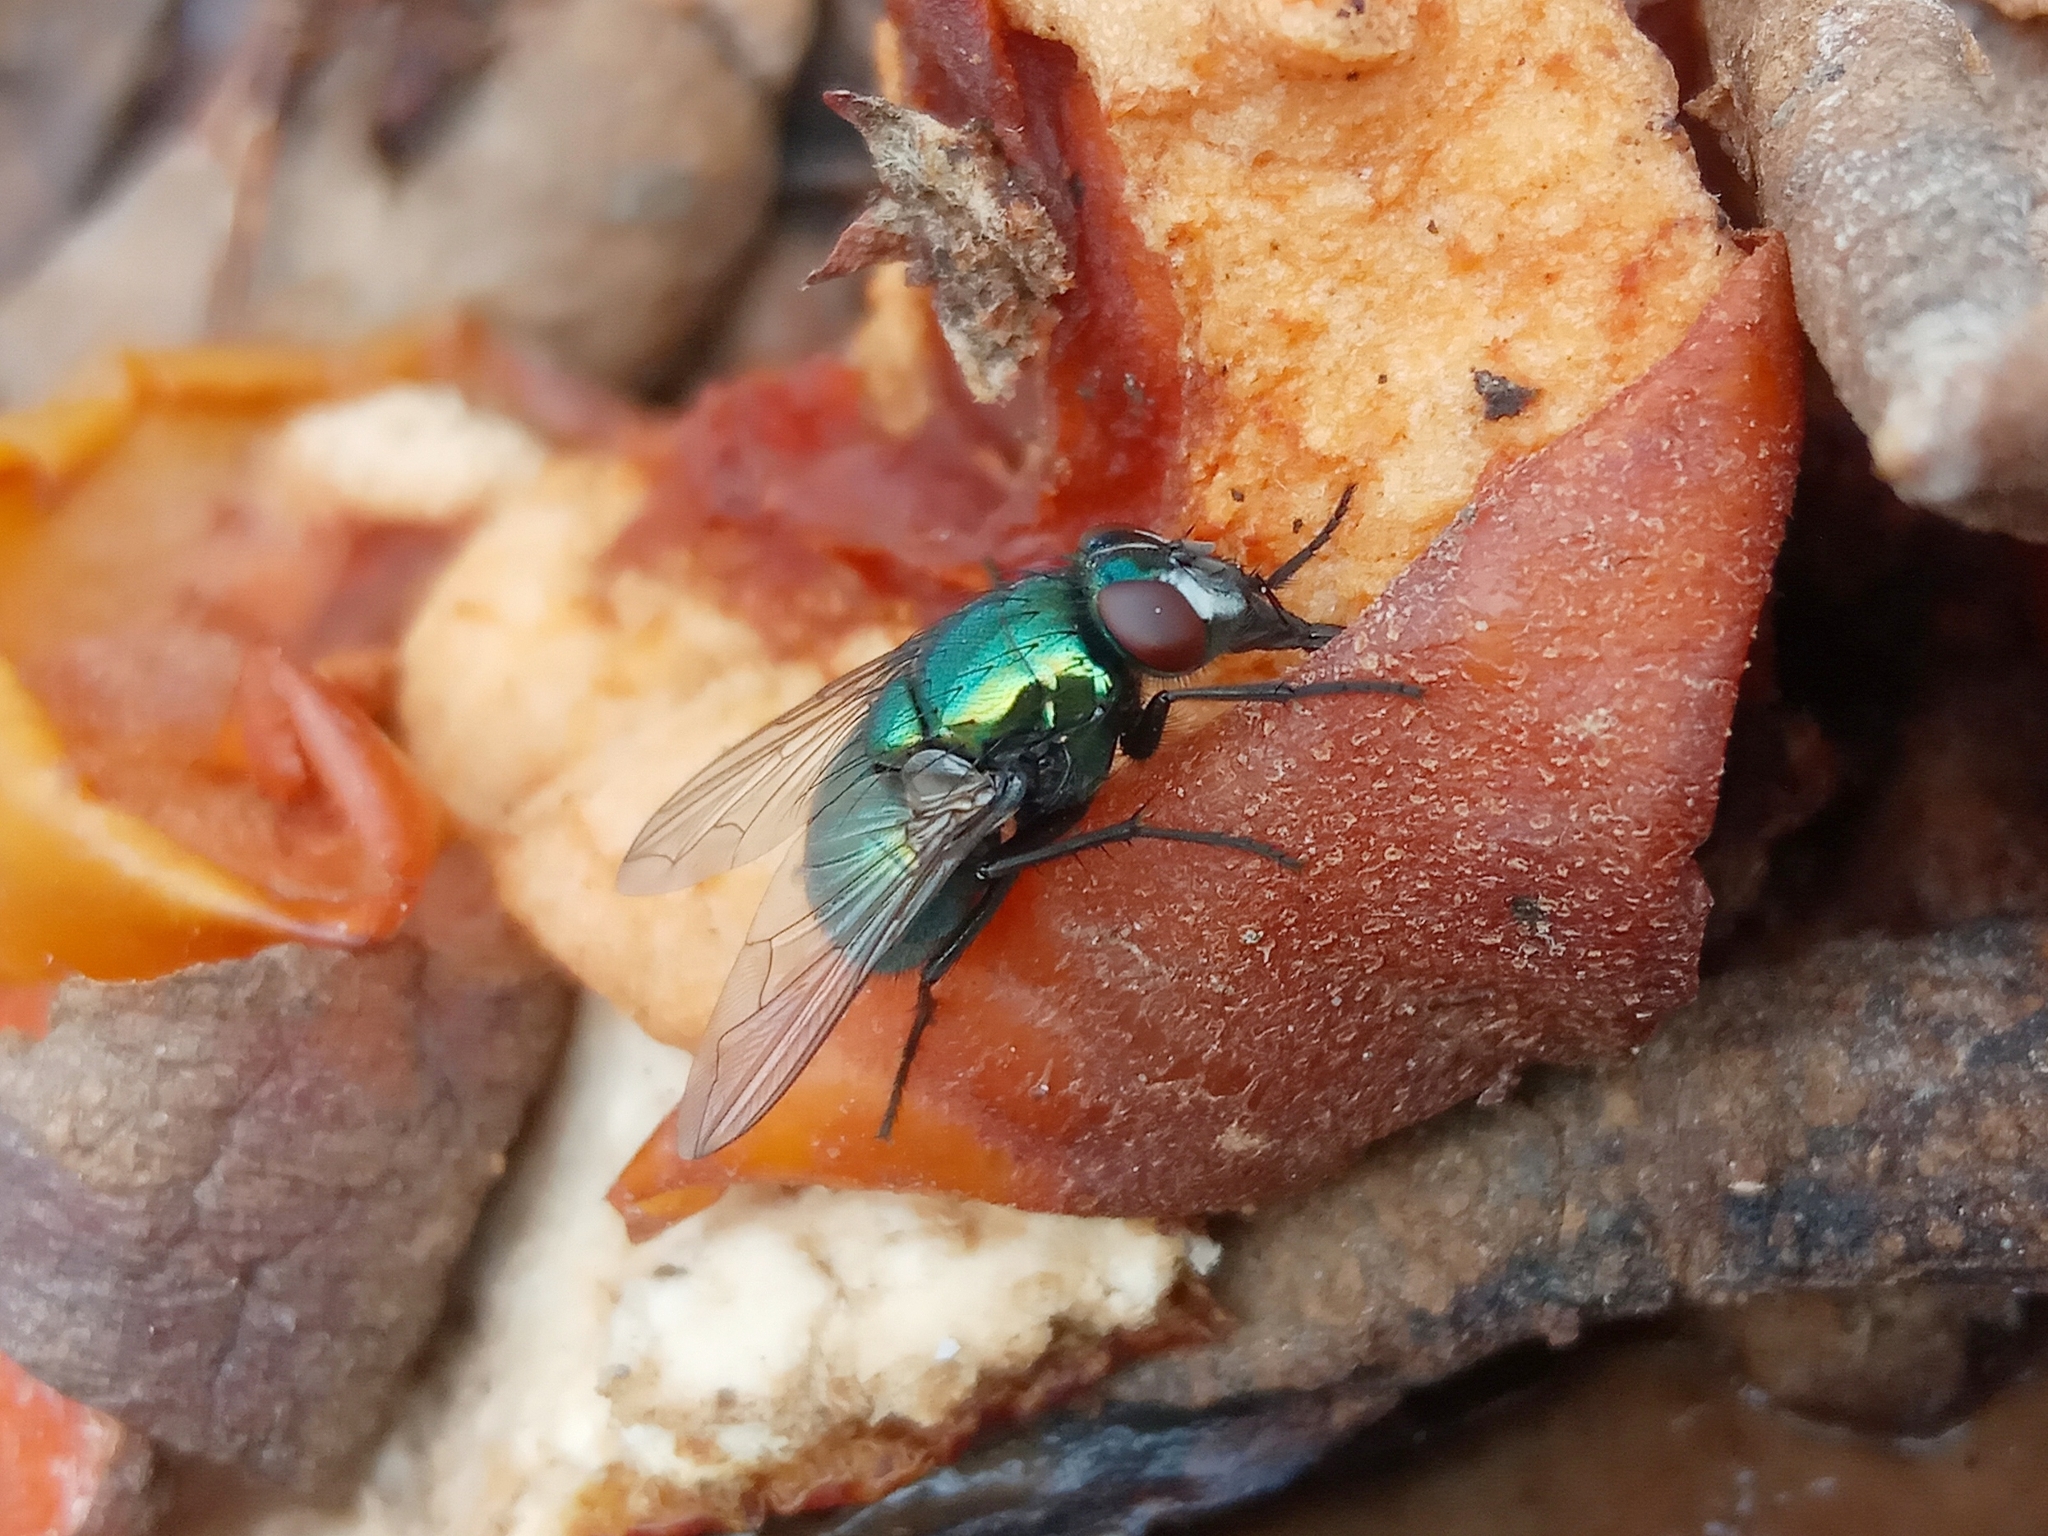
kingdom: Animalia
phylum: Arthropoda
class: Insecta
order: Diptera
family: Muscidae
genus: Neomyia
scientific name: Neomyia cornicina
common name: House fly
